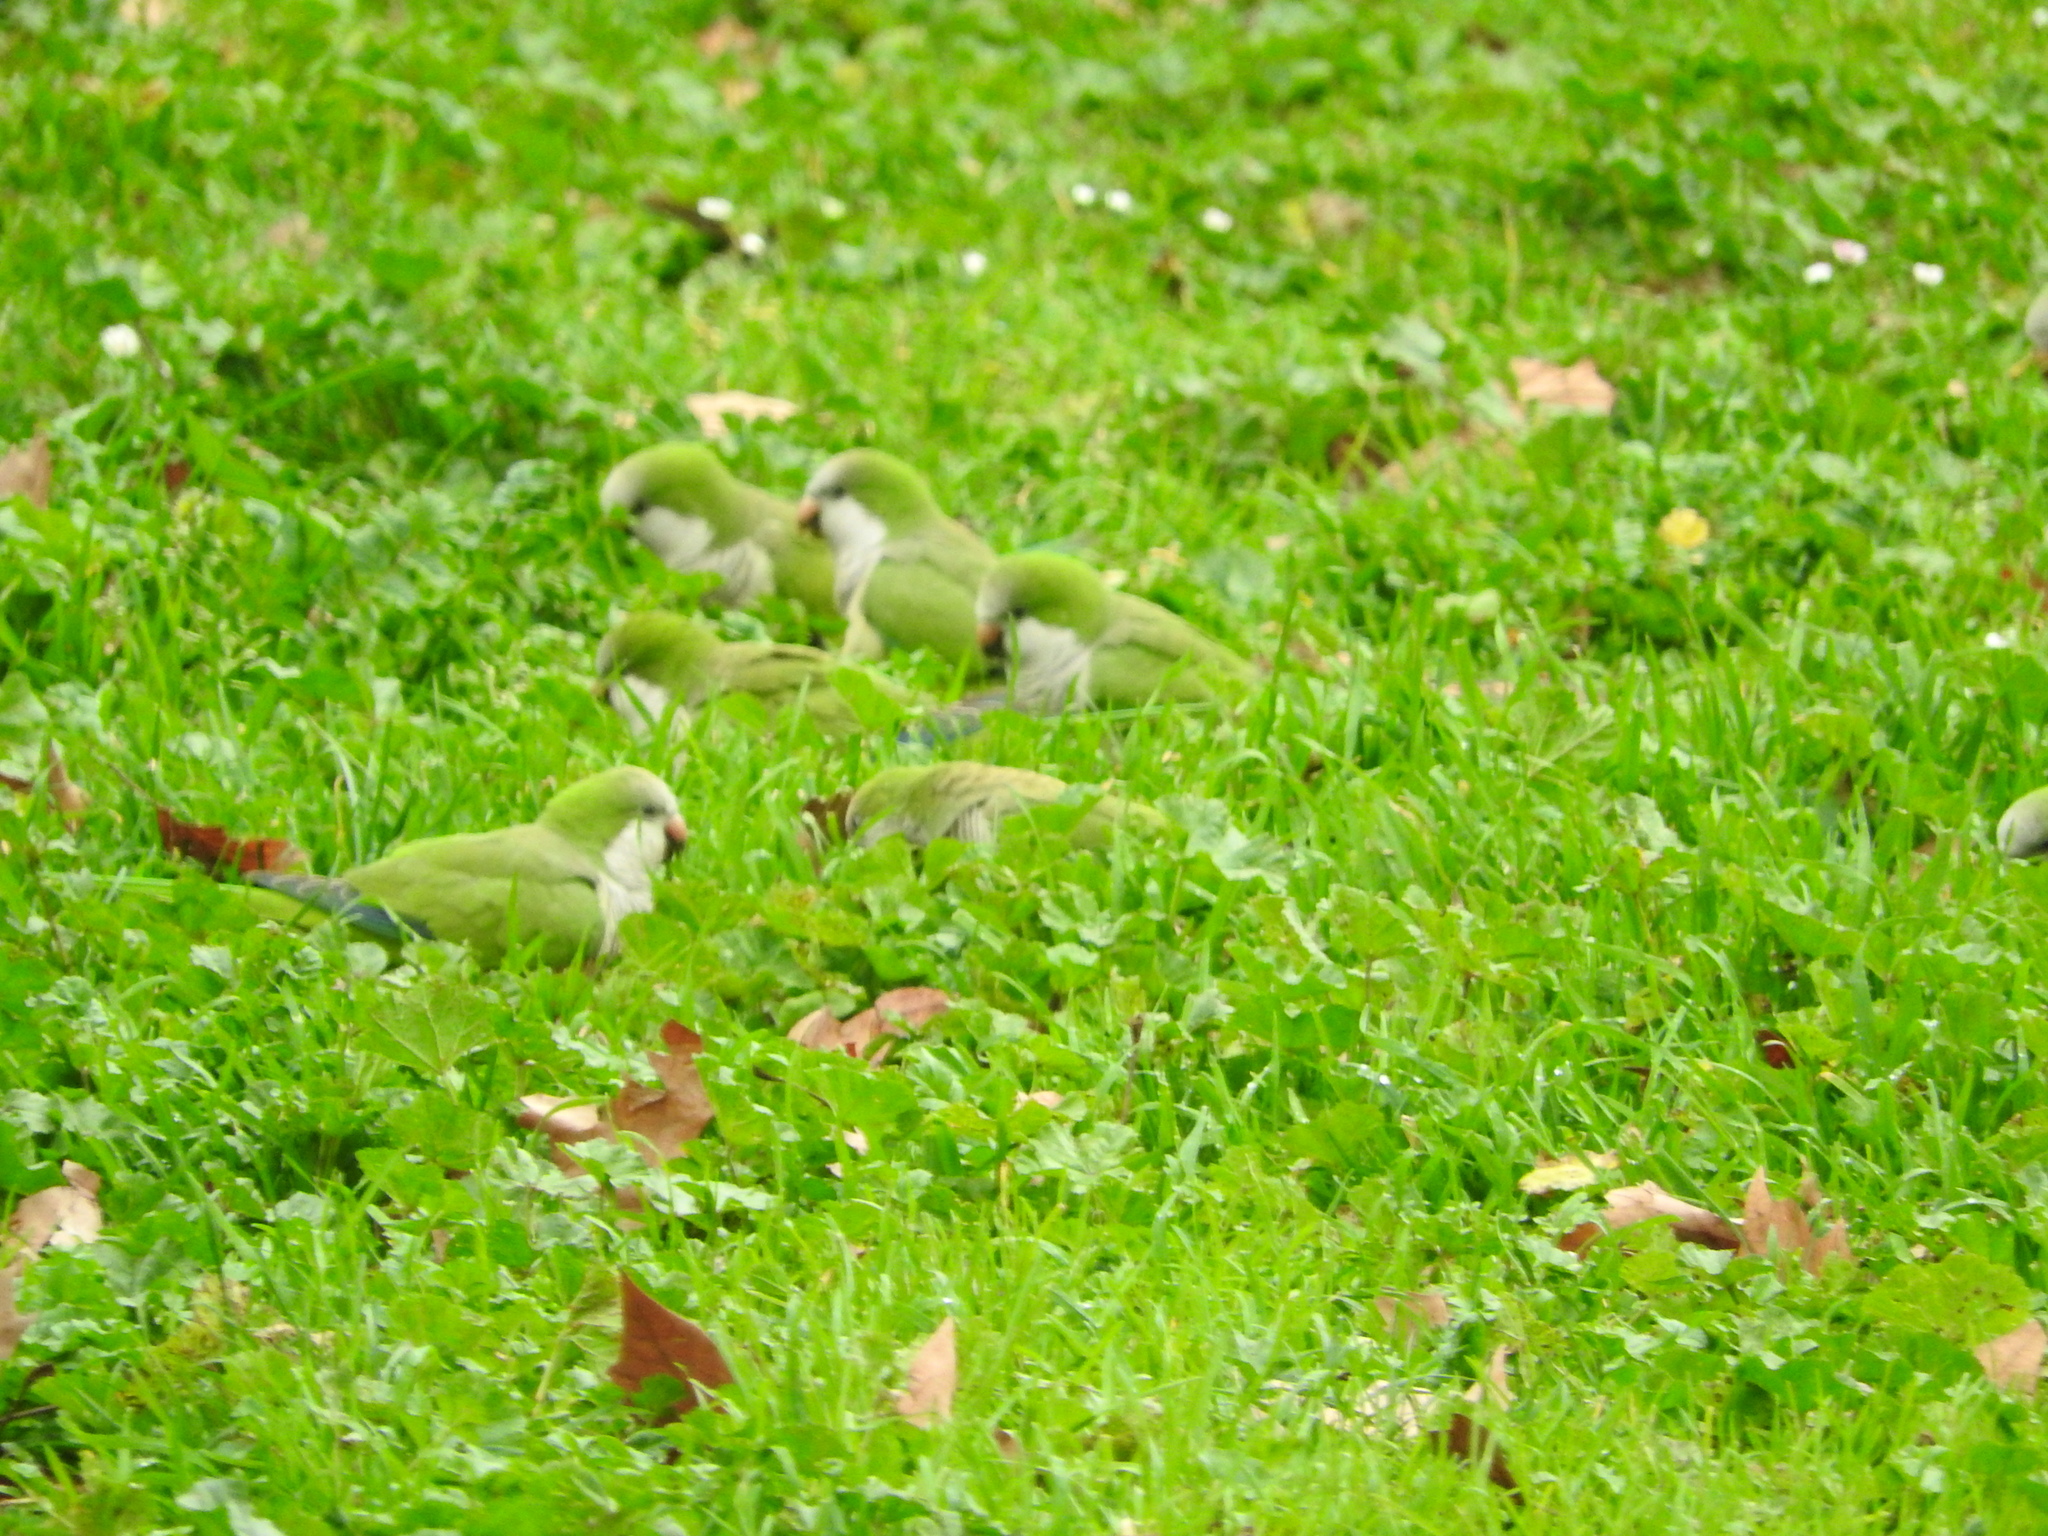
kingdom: Animalia
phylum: Chordata
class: Aves
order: Psittaciformes
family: Psittacidae
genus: Myiopsitta
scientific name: Myiopsitta monachus
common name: Monk parakeet
